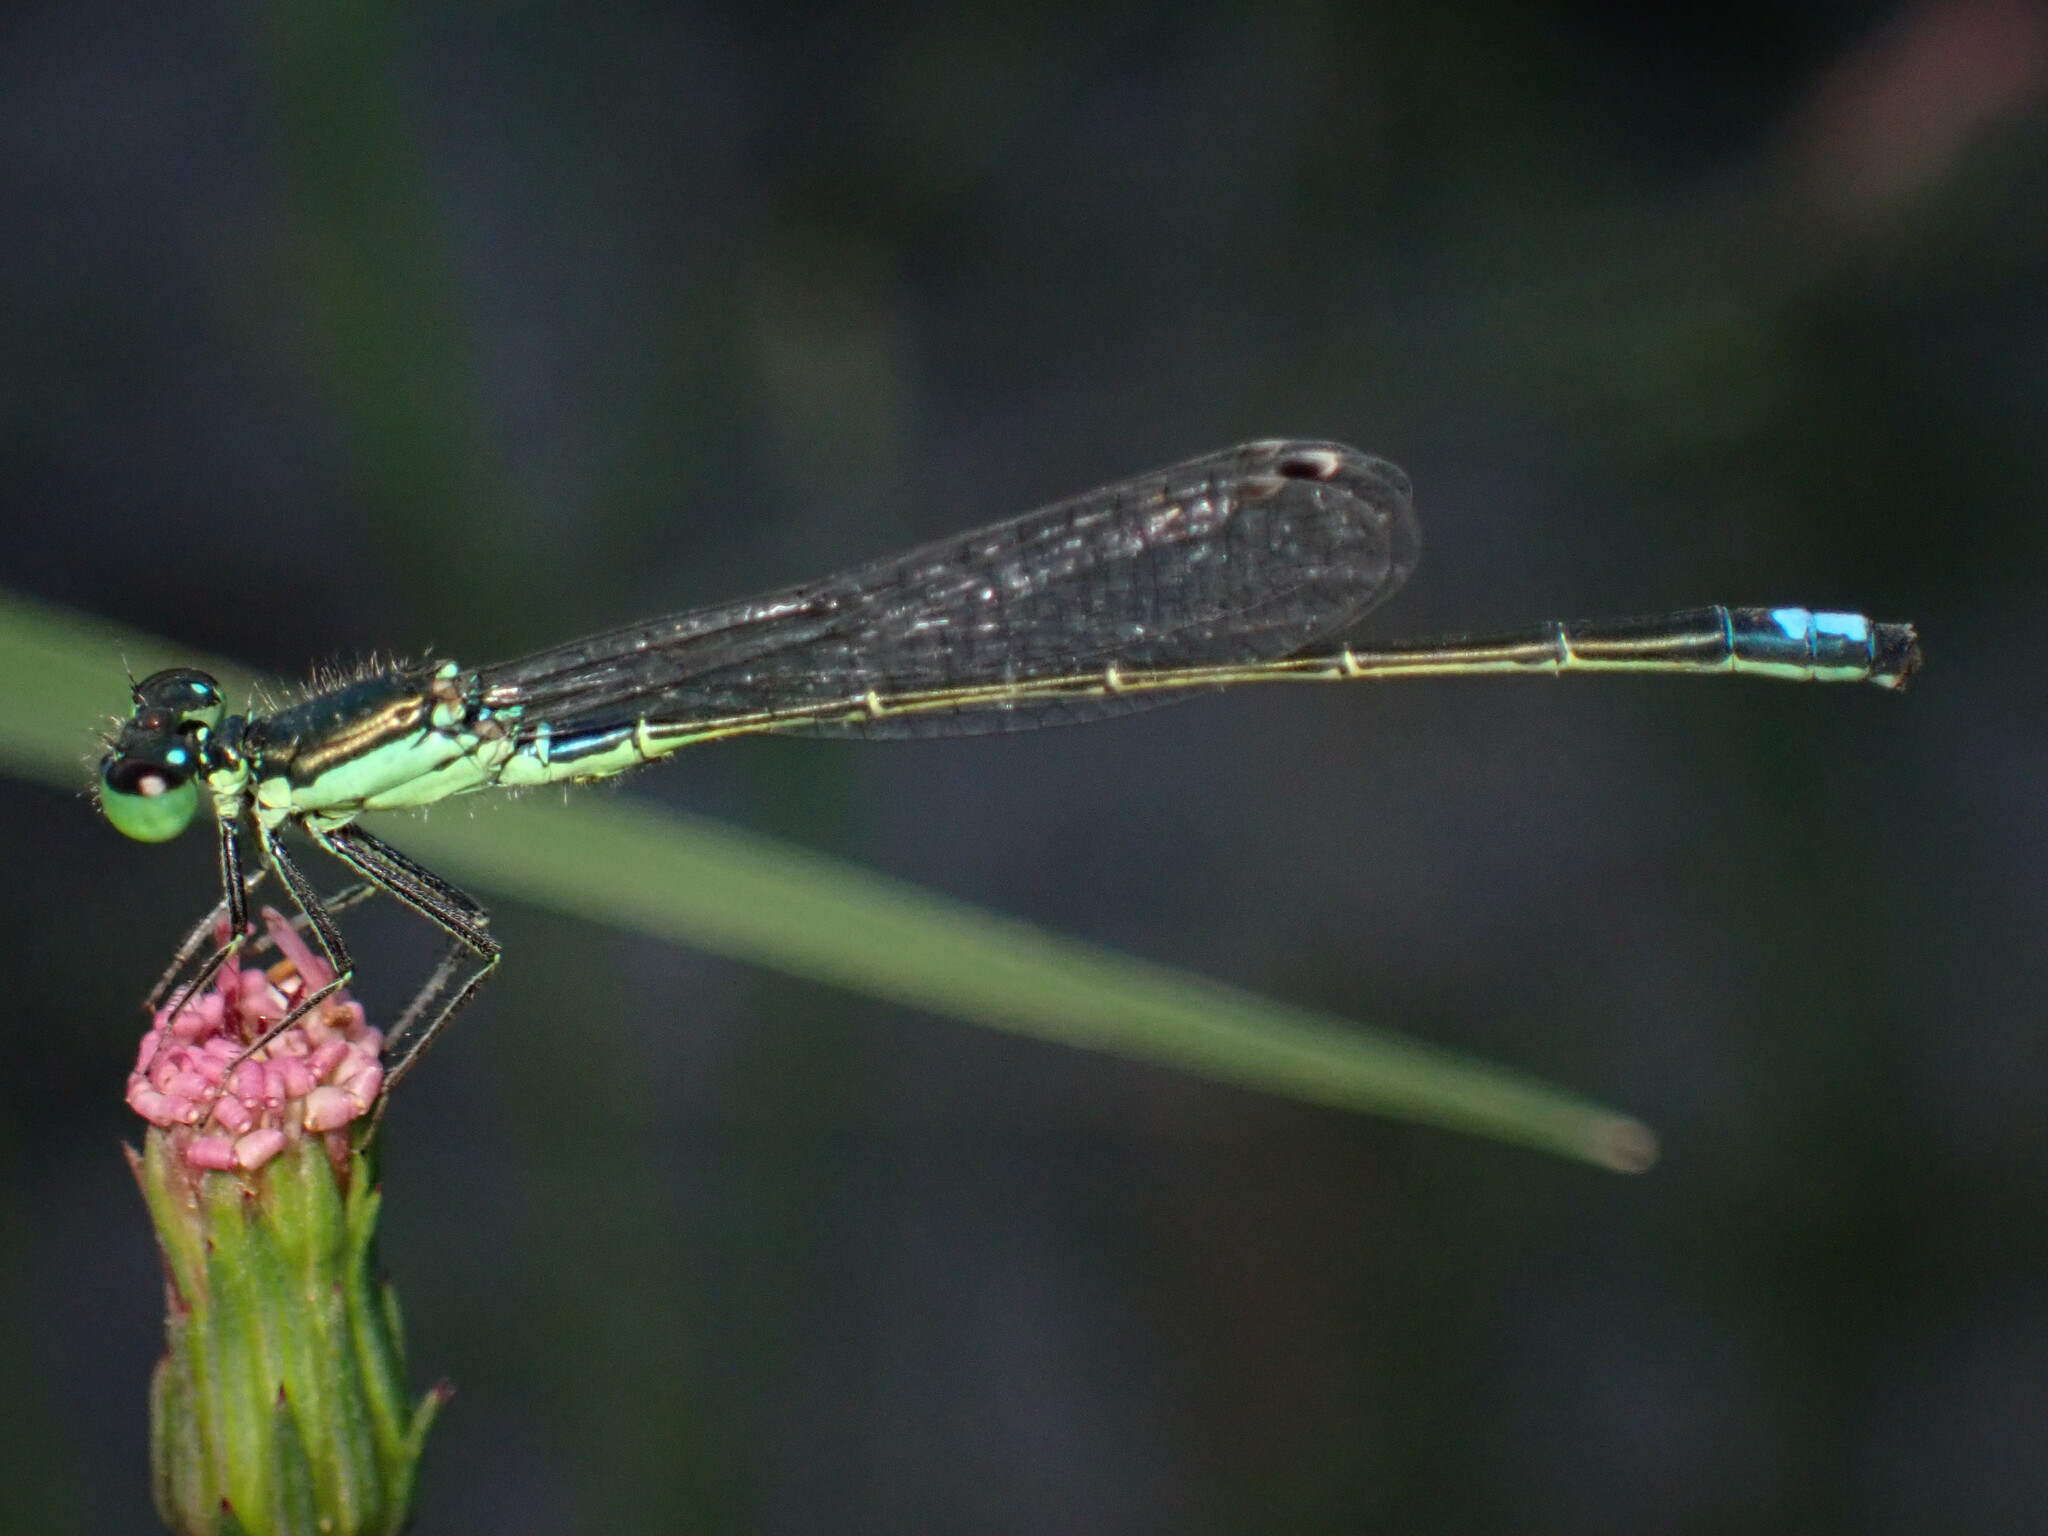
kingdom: Animalia
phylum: Arthropoda
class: Insecta
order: Odonata
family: Coenagrionidae
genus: Ischnura
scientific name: Ischnura denticollis
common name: Black-fronted forktail
